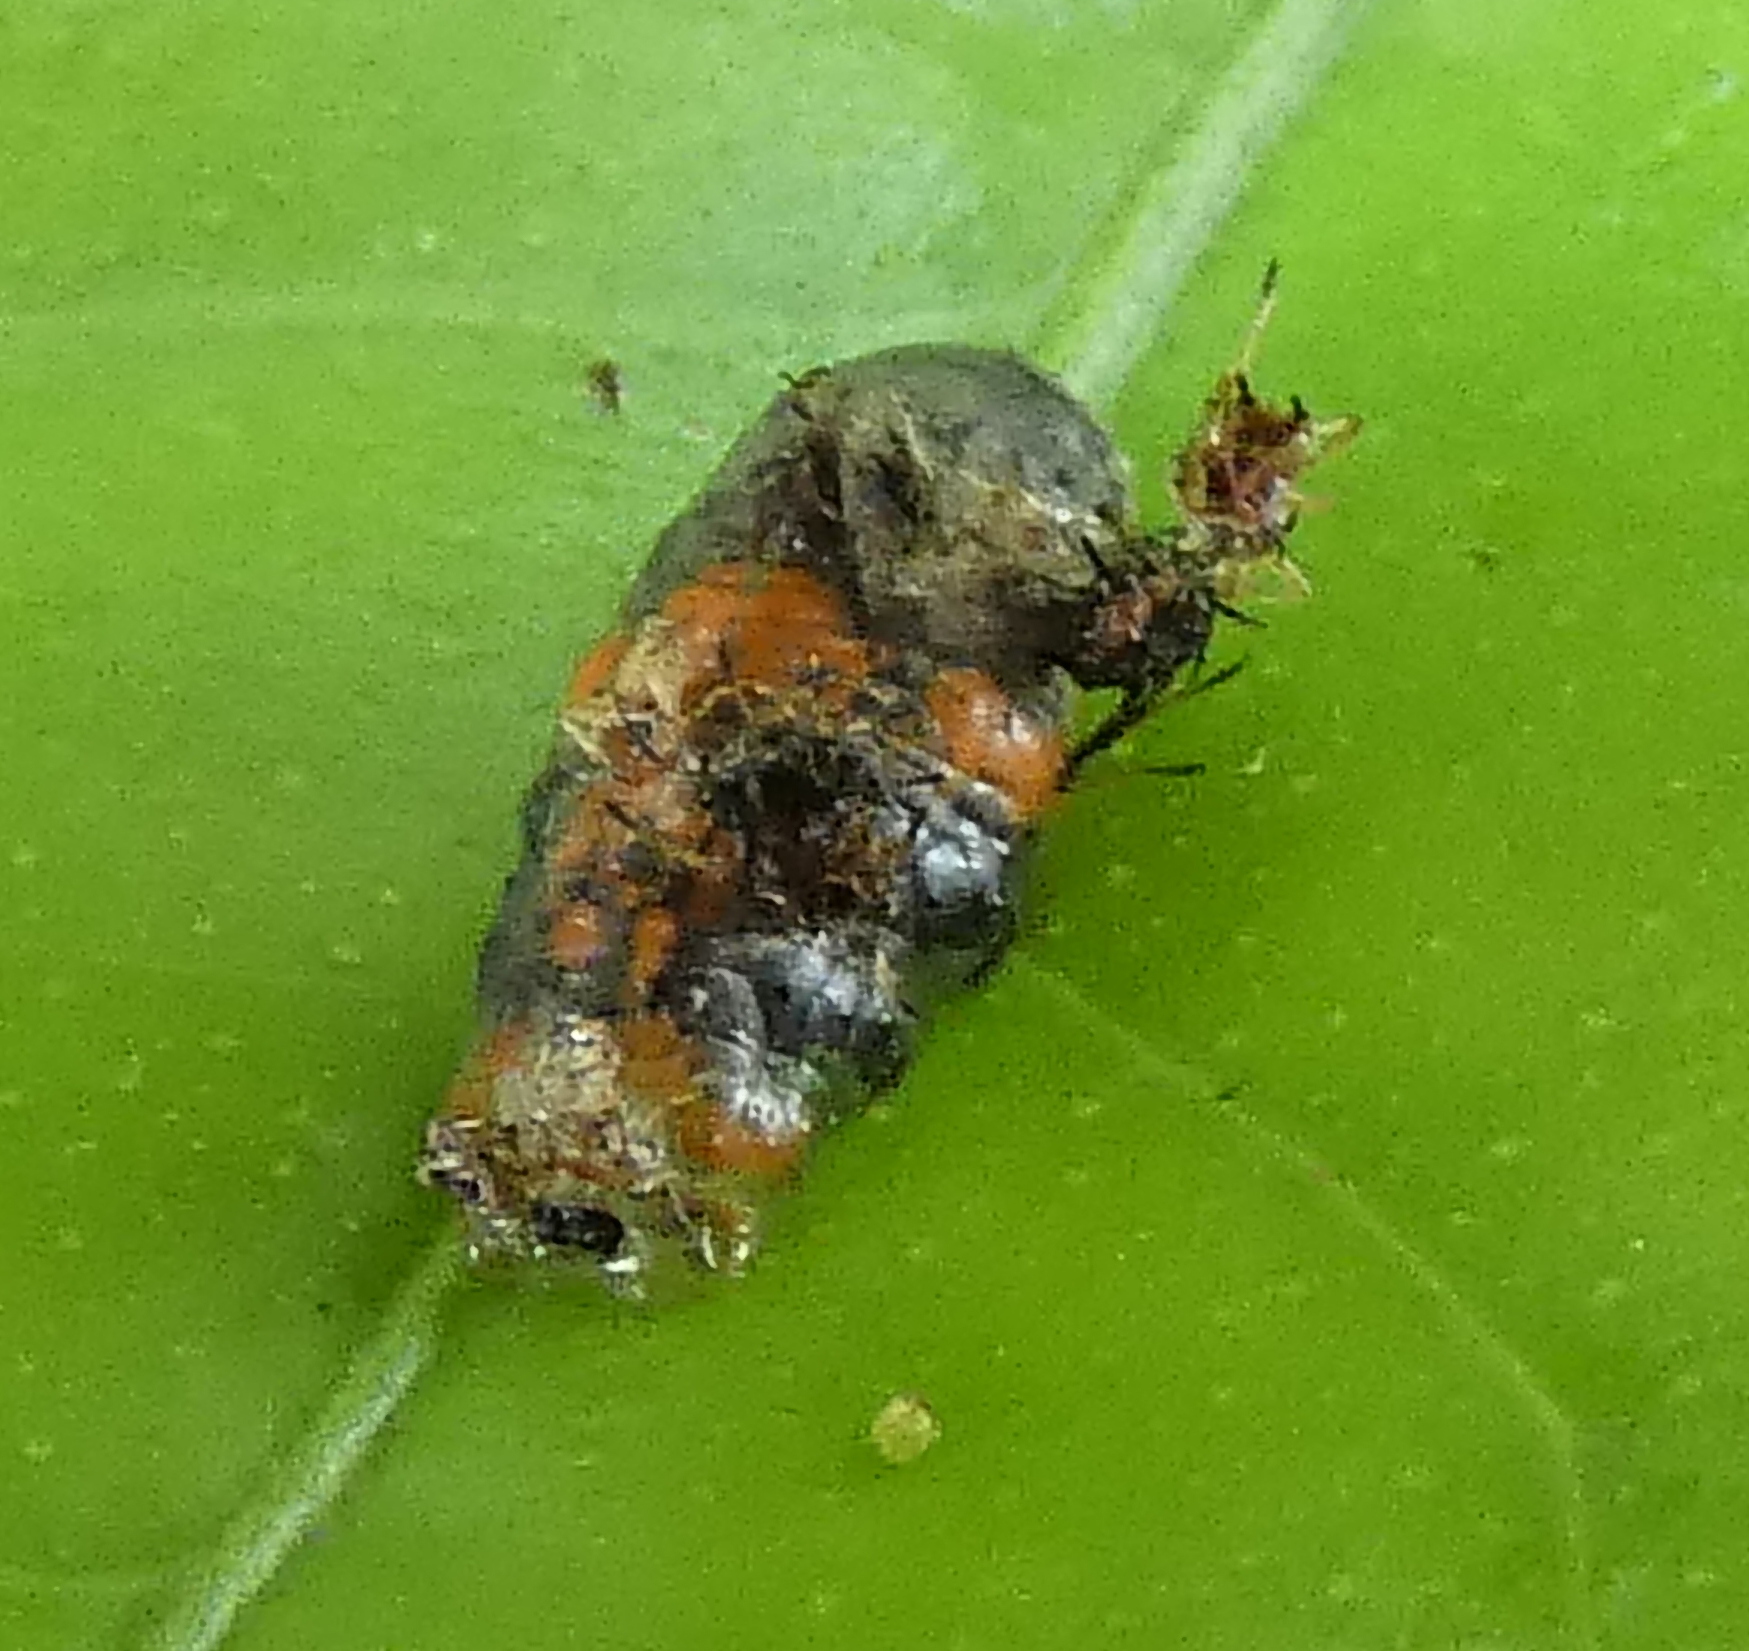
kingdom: Animalia
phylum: Arthropoda
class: Insecta
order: Diptera
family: Syrphidae
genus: Ocyptamus
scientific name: Ocyptamus gastrostactus
